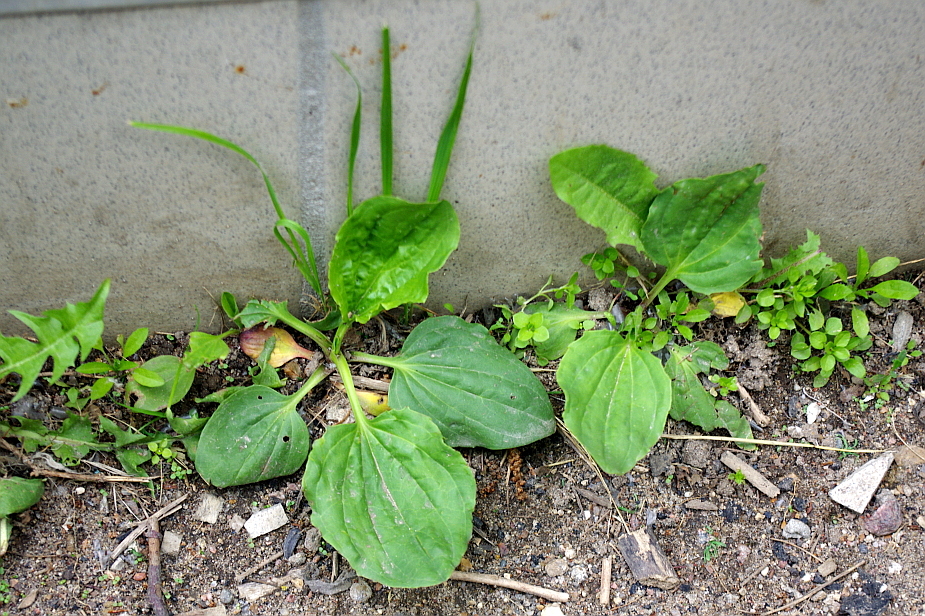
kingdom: Plantae
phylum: Tracheophyta
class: Magnoliopsida
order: Lamiales
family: Plantaginaceae
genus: Plantago
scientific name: Plantago major
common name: Common plantain
